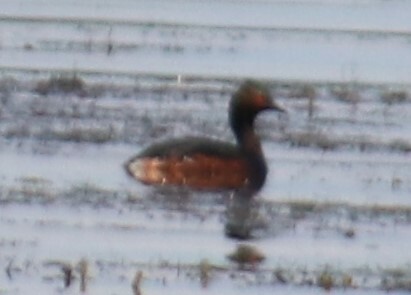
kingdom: Animalia
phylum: Chordata
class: Aves
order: Podicipediformes
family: Podicipedidae
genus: Podiceps
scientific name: Podiceps nigricollis
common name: Black-necked grebe
